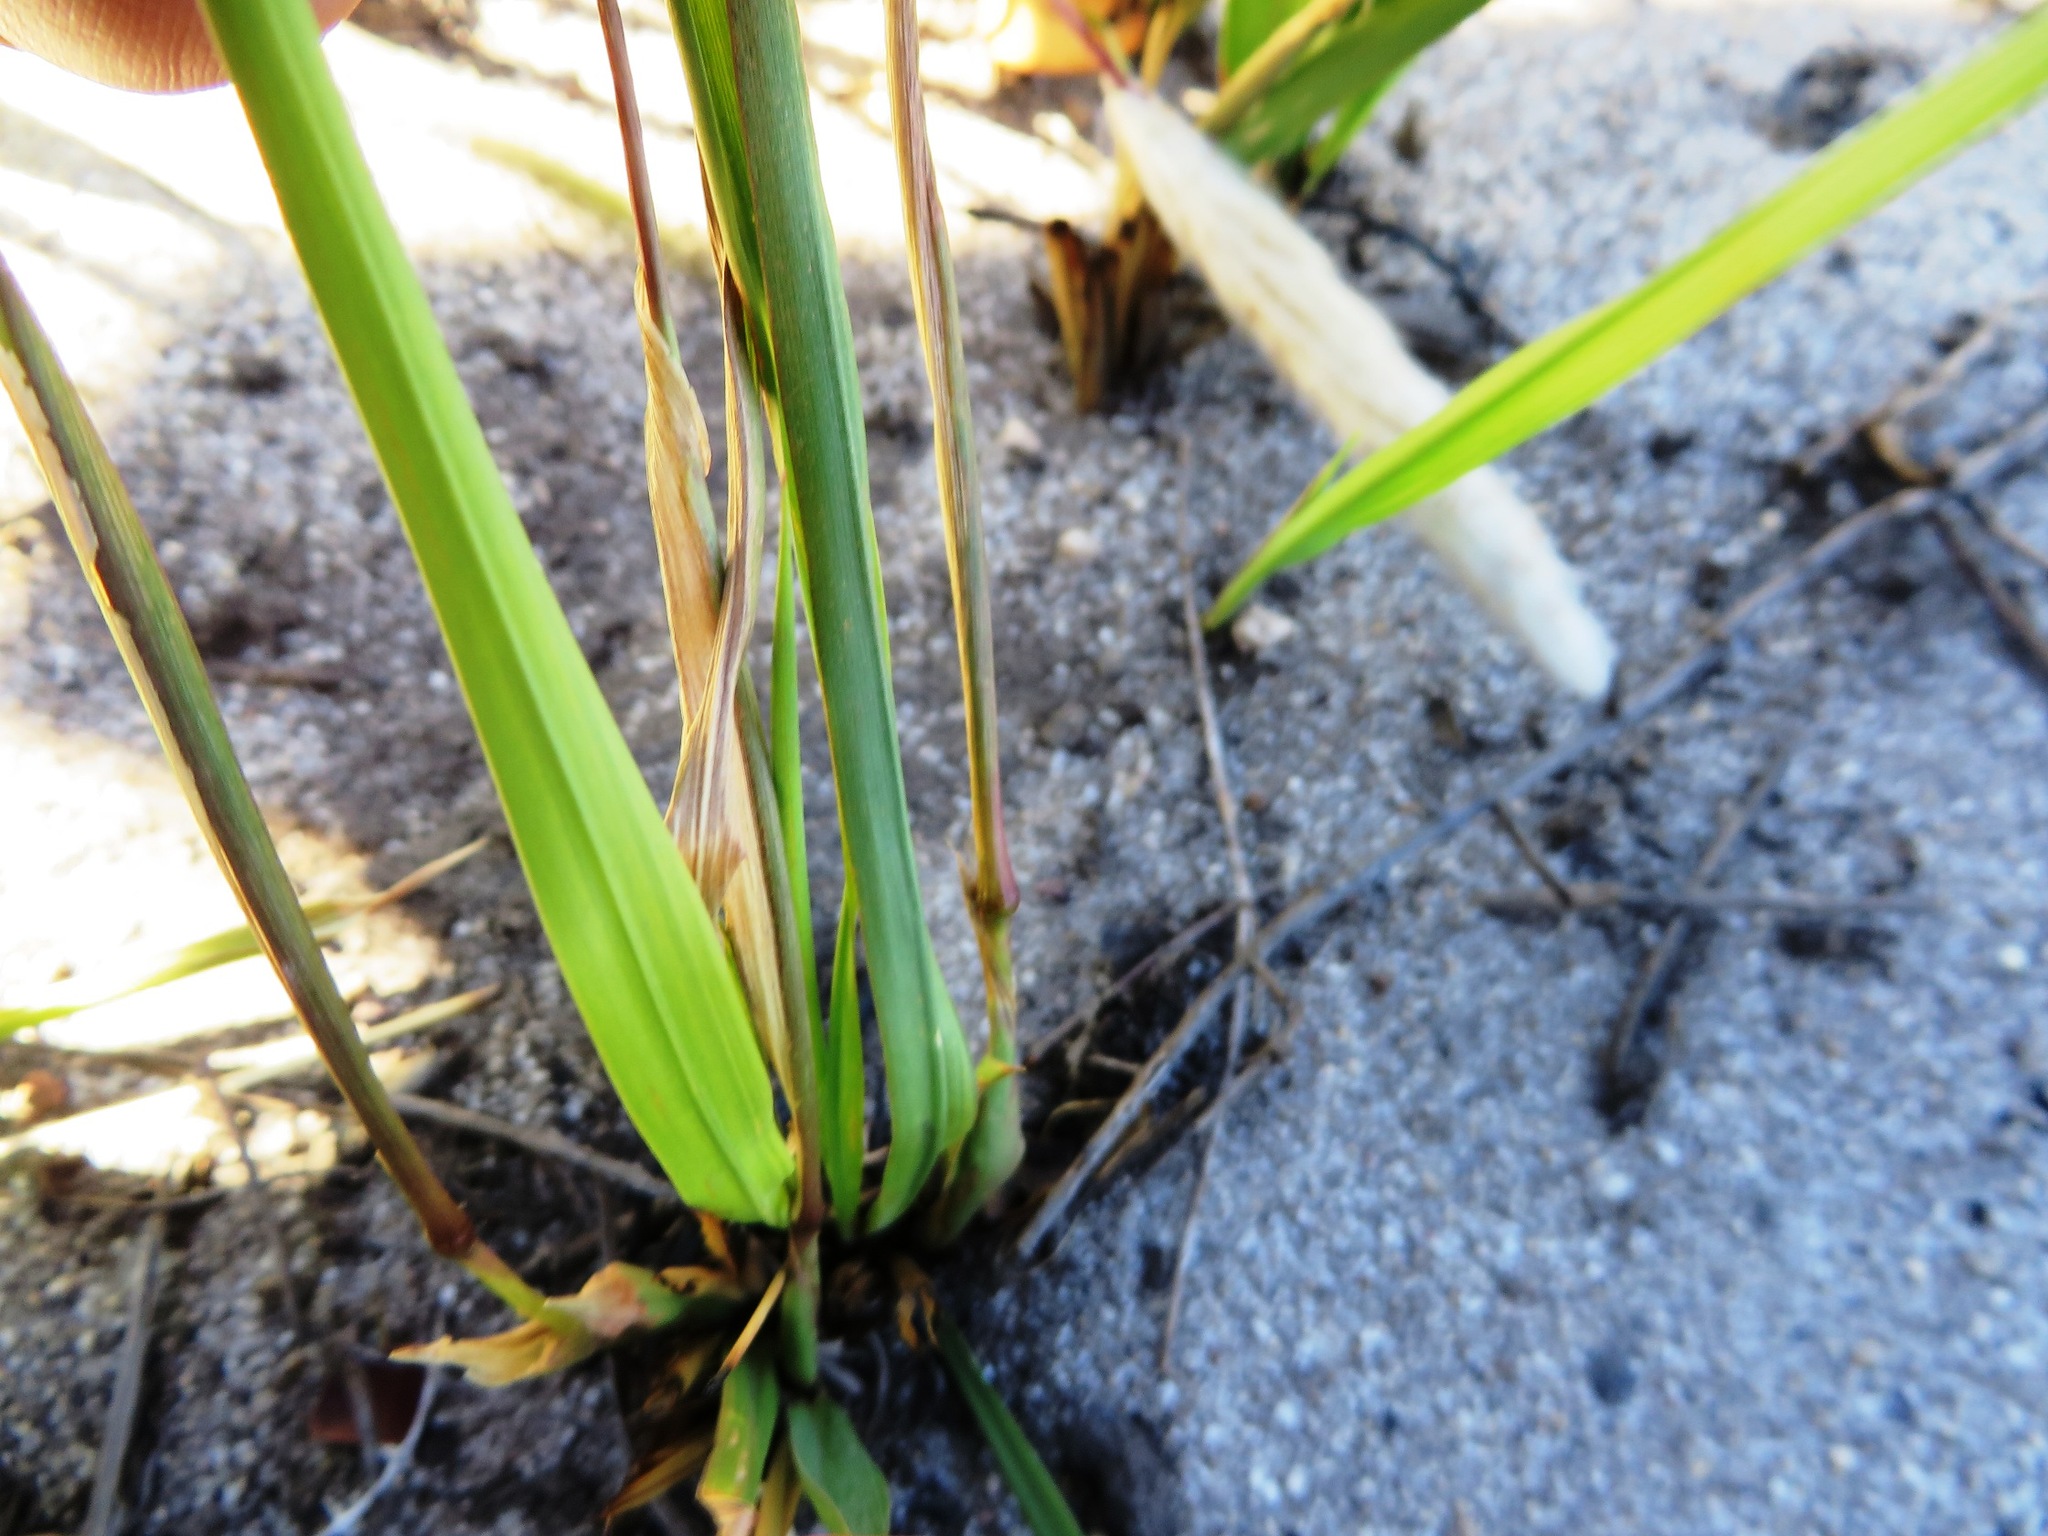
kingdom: Plantae
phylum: Tracheophyta
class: Liliopsida
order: Poales
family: Poaceae
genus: Imperata
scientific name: Imperata cylindrica
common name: Cogongrass
